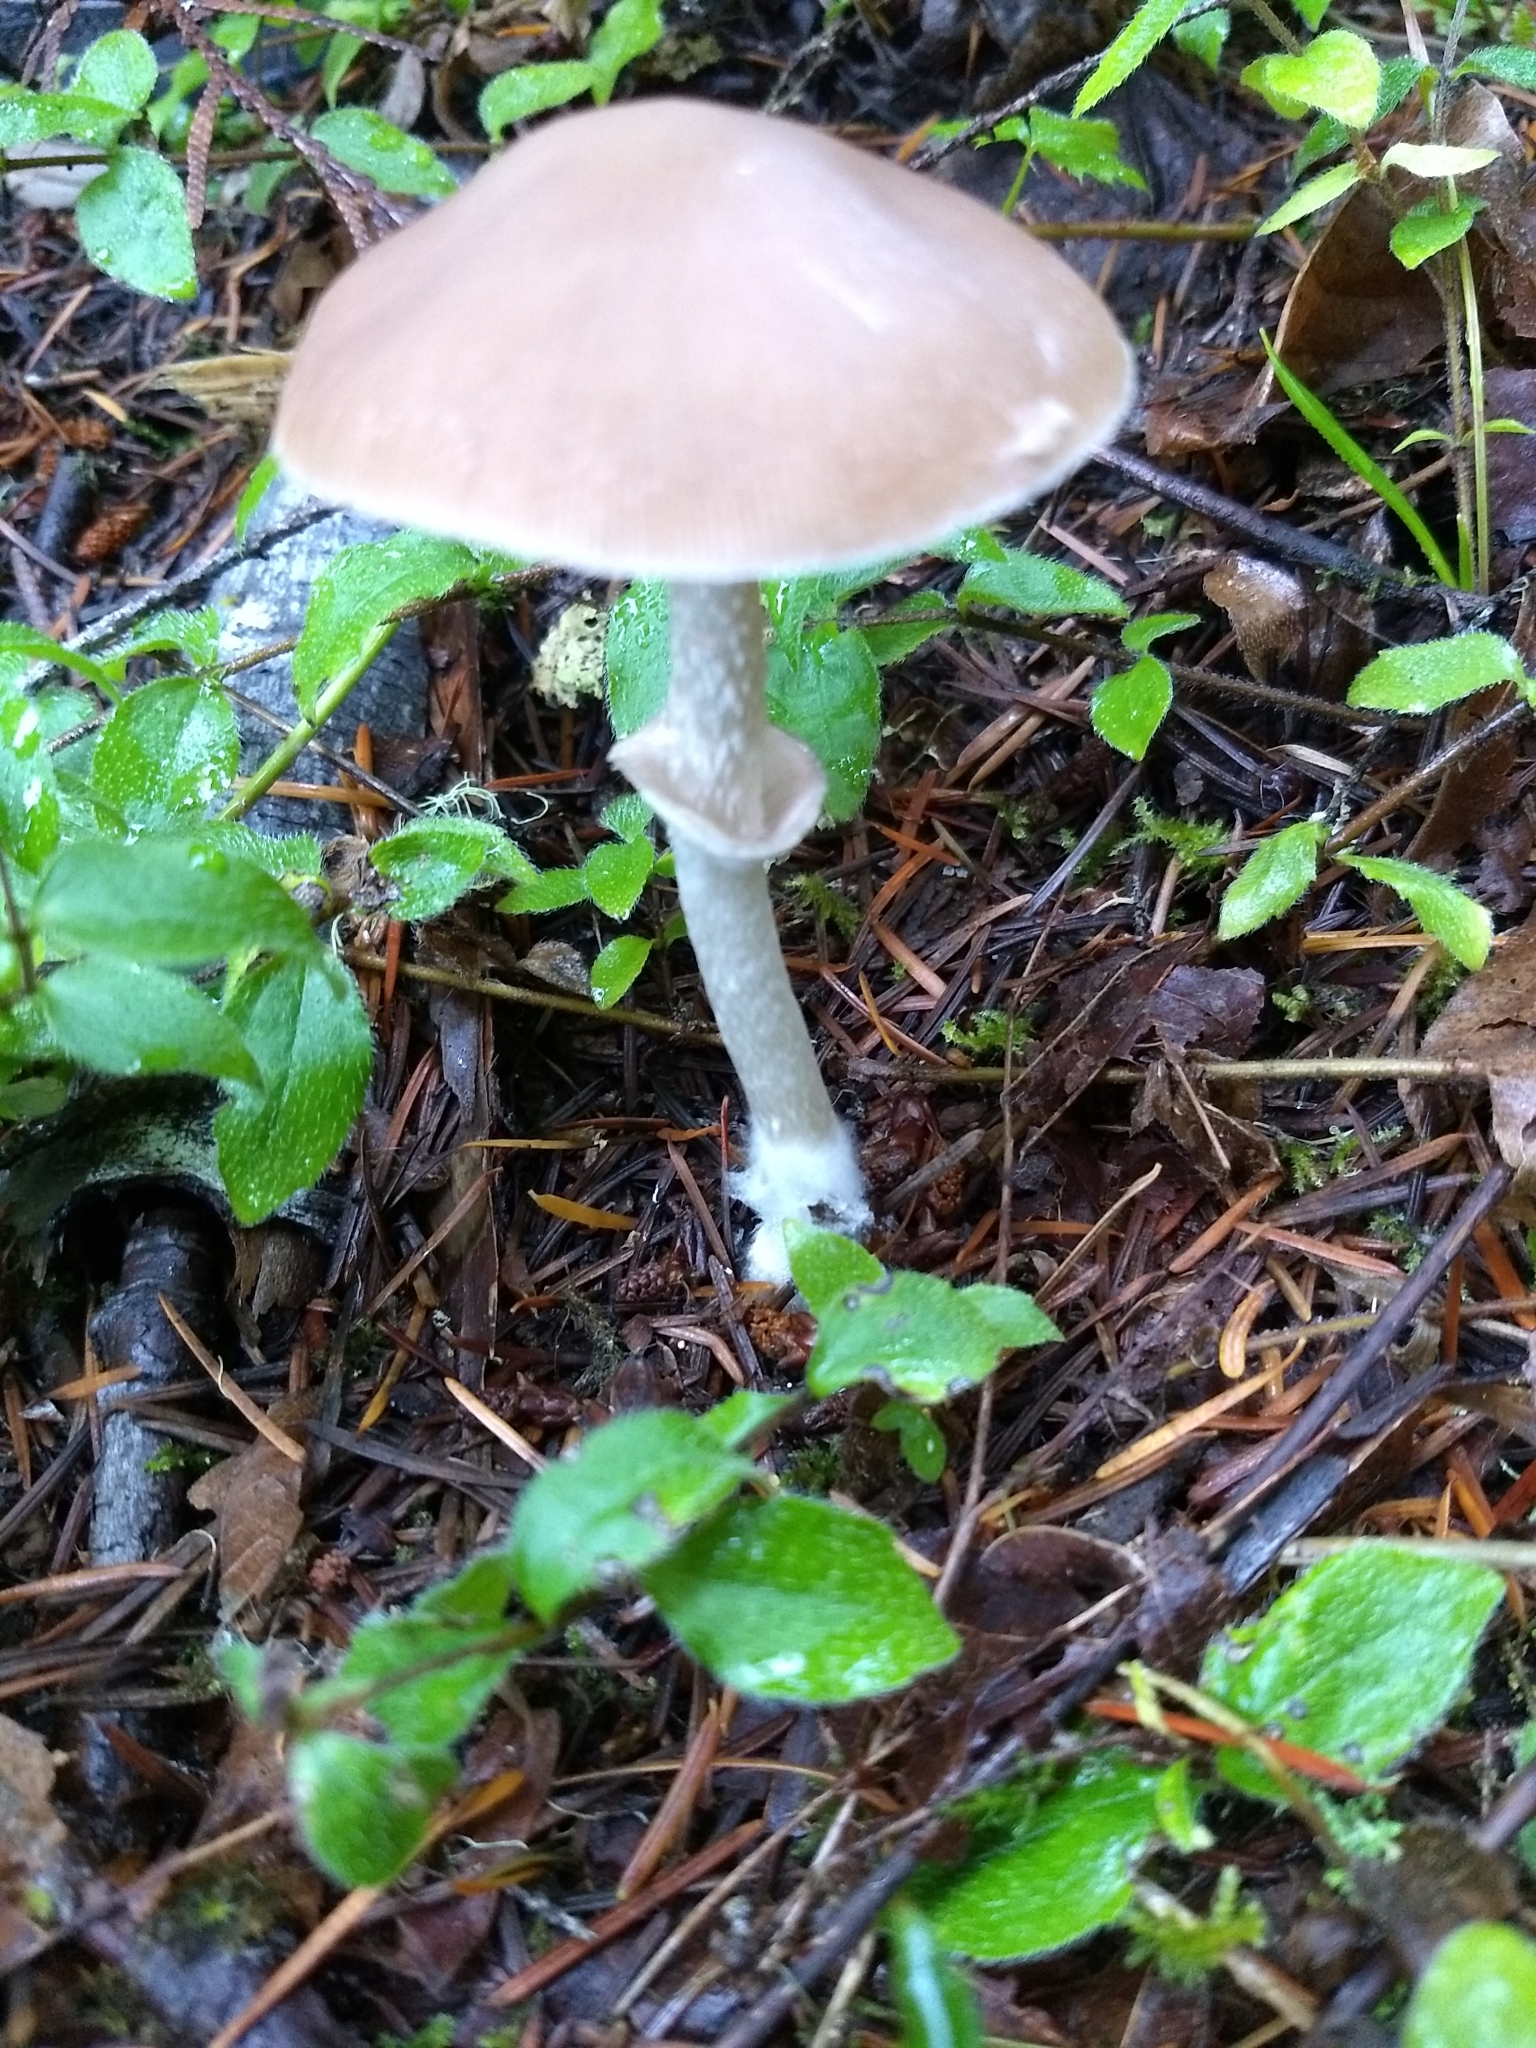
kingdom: Fungi
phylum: Basidiomycota
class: Agaricomycetes
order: Agaricales
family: Psathyrellaceae
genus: Psathyrella
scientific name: Psathyrella longistriata
